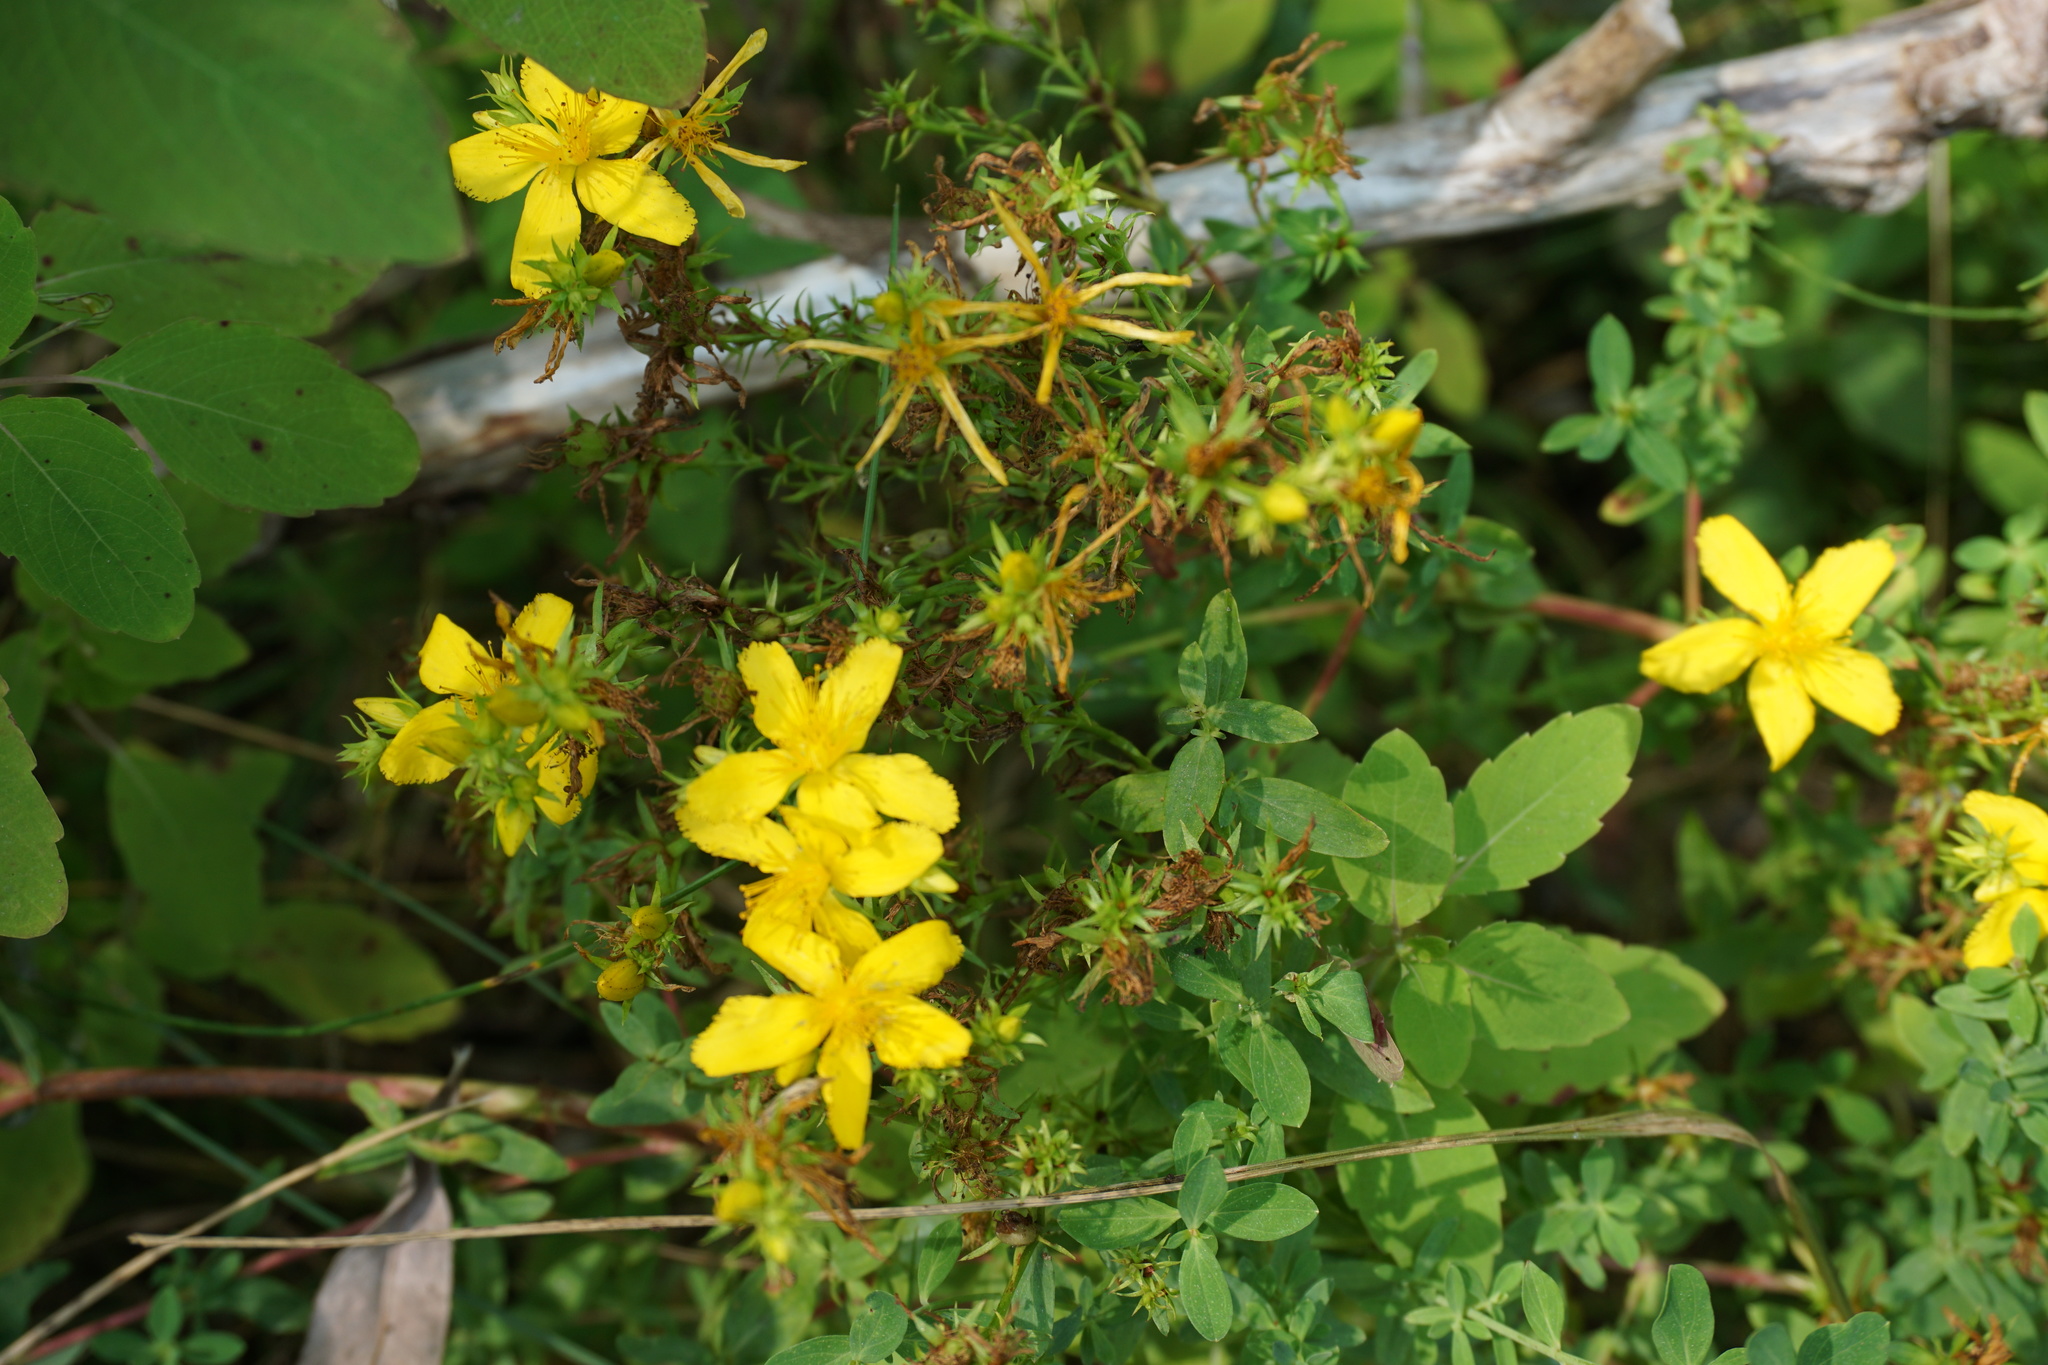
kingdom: Plantae
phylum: Tracheophyta
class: Magnoliopsida
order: Malpighiales
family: Hypericaceae
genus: Hypericum
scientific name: Hypericum perforatum
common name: Common st. johnswort
